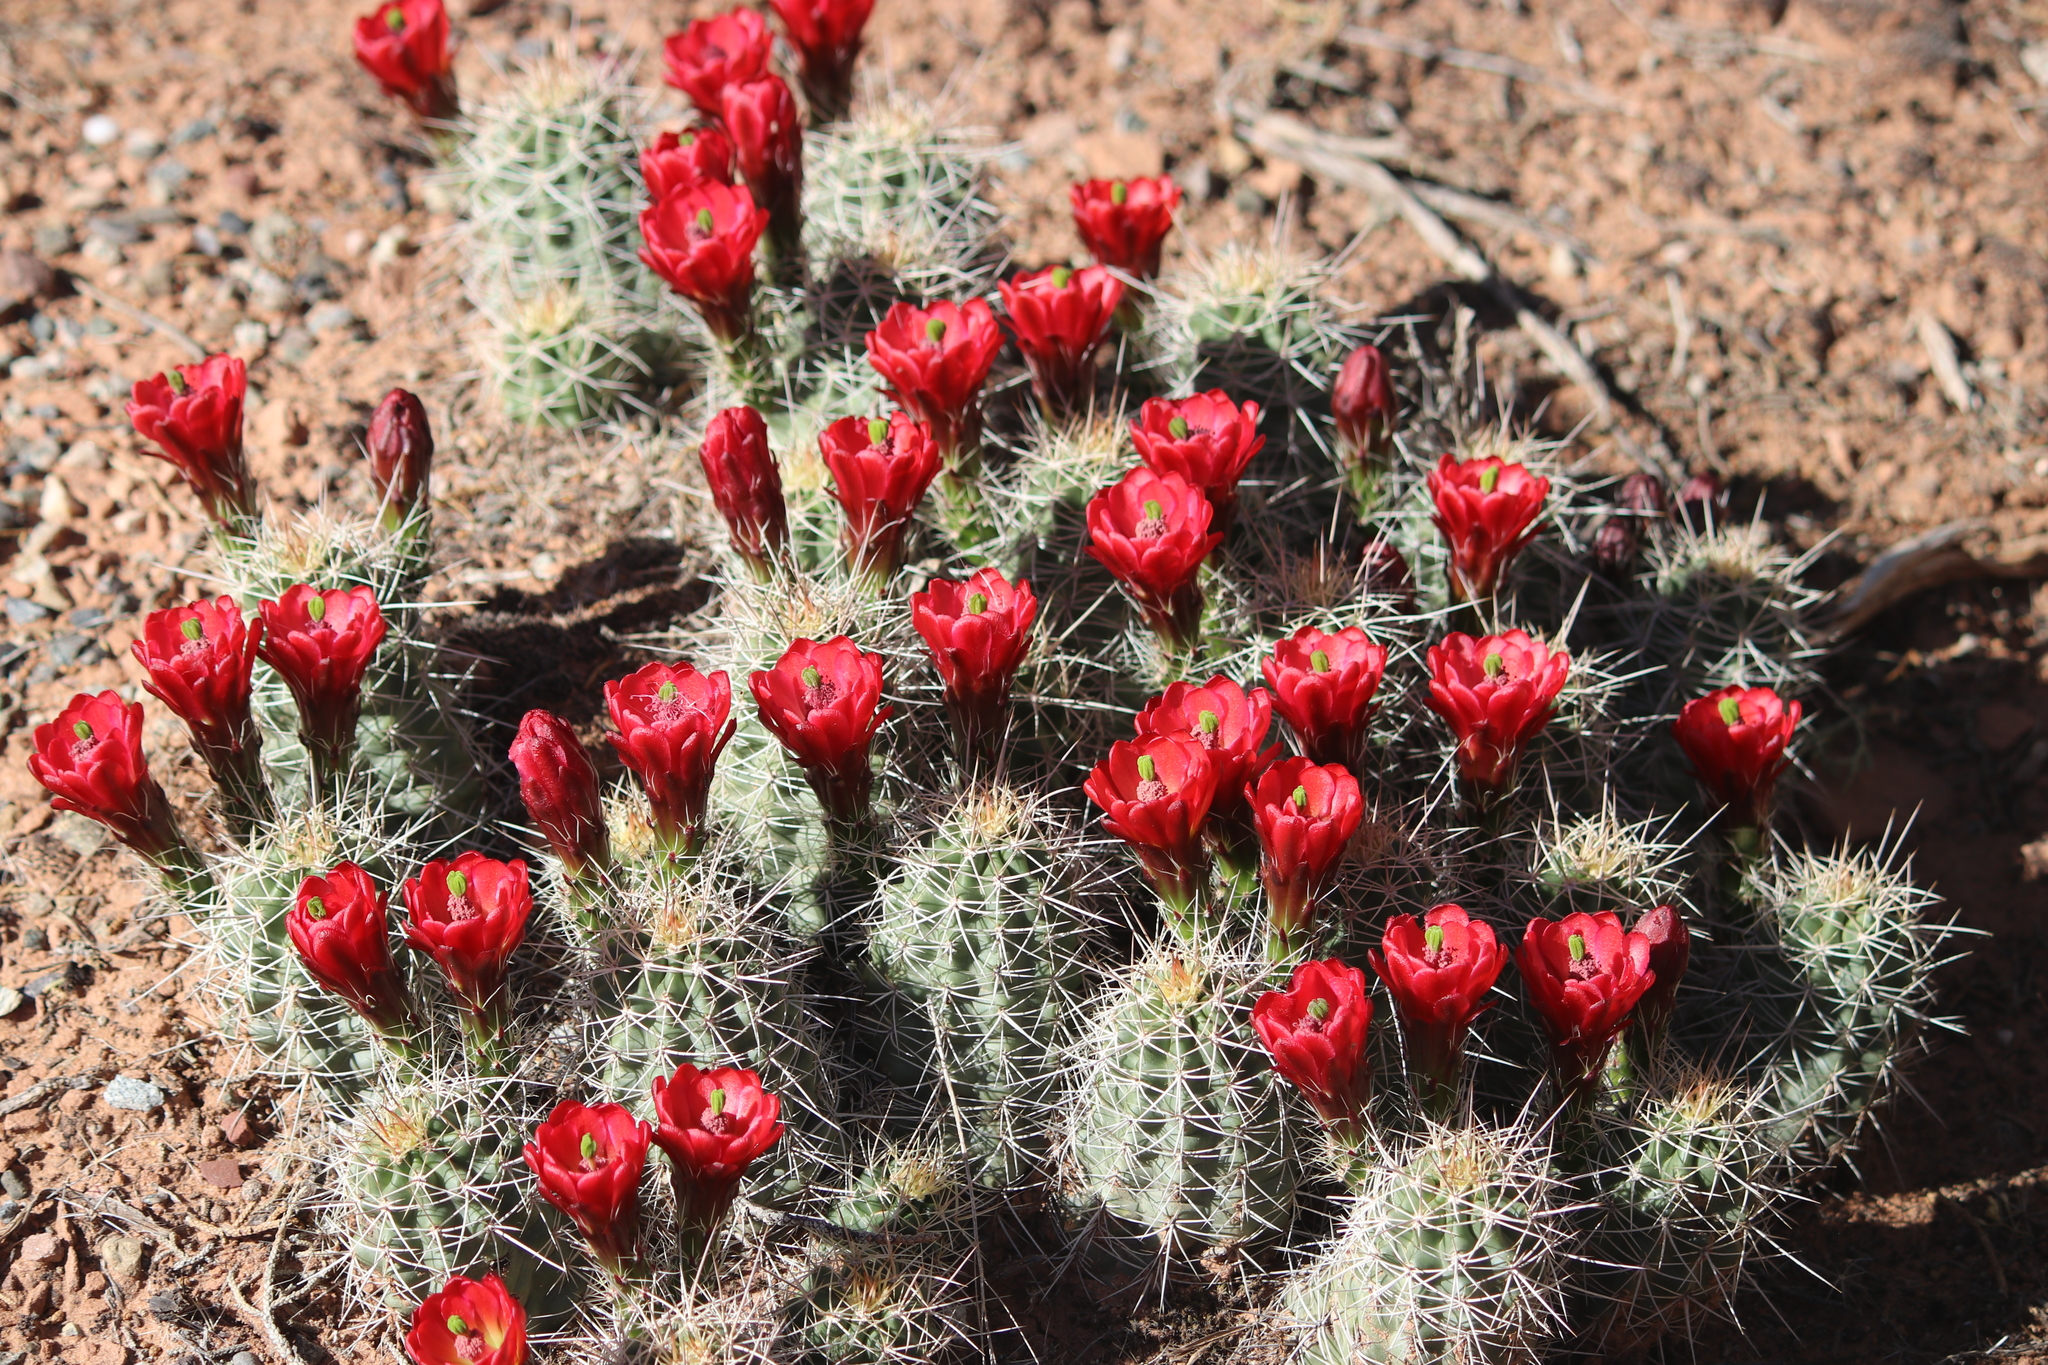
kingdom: Plantae
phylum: Tracheophyta
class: Magnoliopsida
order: Caryophyllales
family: Cactaceae
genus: Echinocereus
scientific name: Echinocereus triglochidiatus
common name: Claretcup hedgehog
